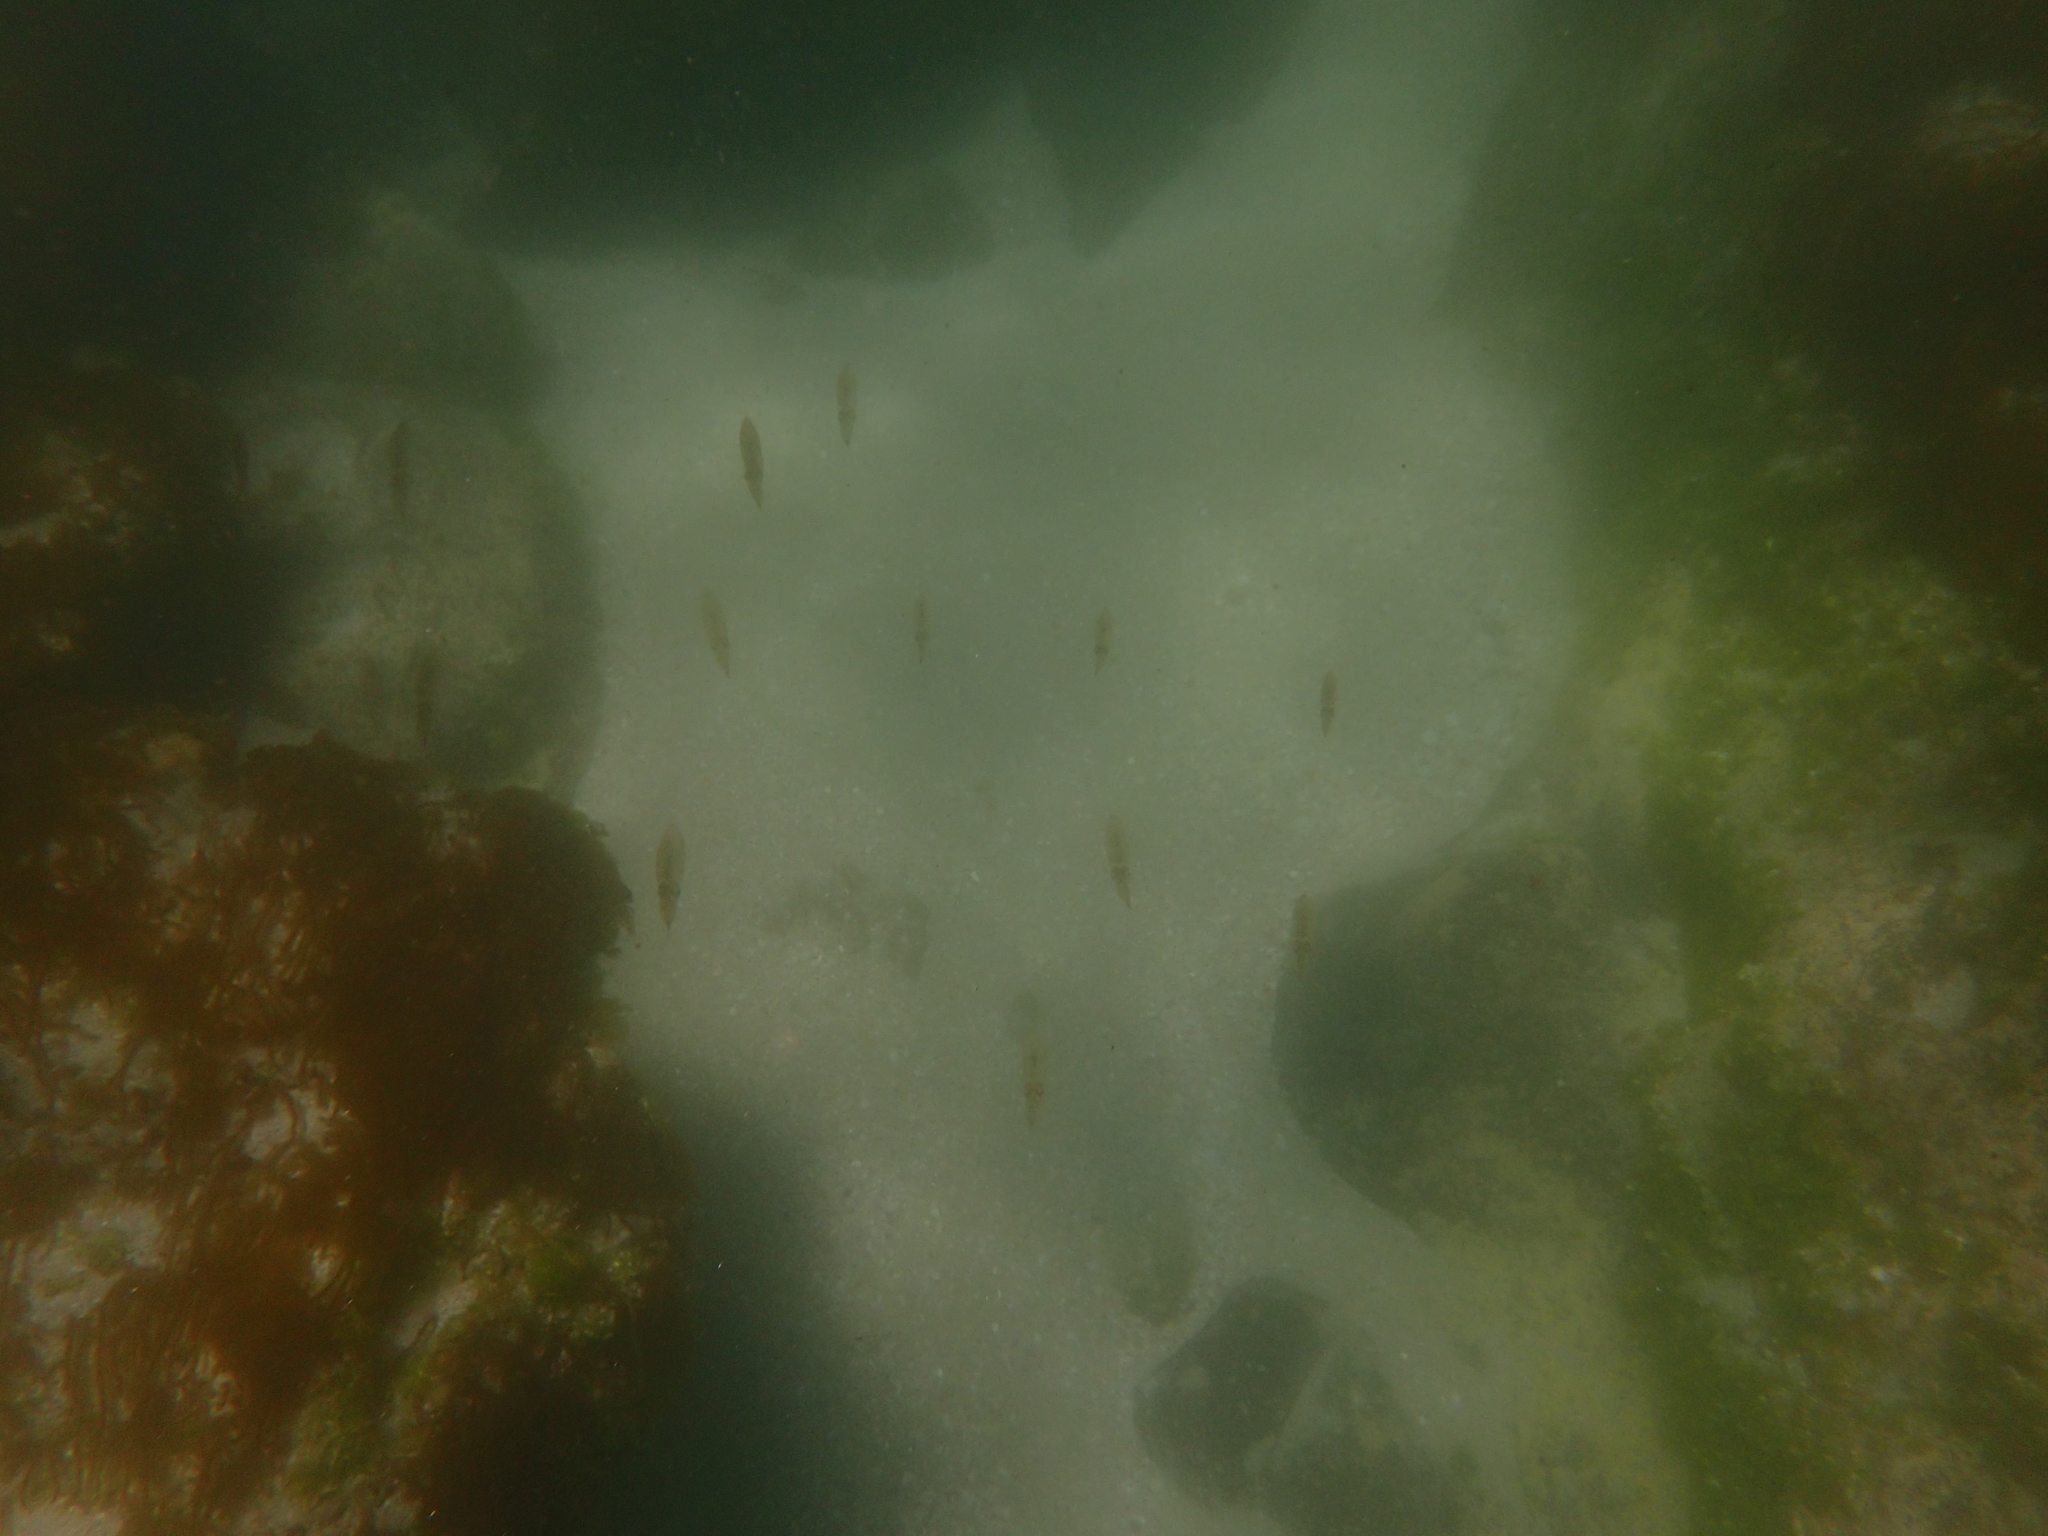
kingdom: Animalia
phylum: Mollusca
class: Cephalopoda
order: Myopsida
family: Loliginidae
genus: Sepioteuthis
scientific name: Sepioteuthis australis
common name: Southern reef squid
